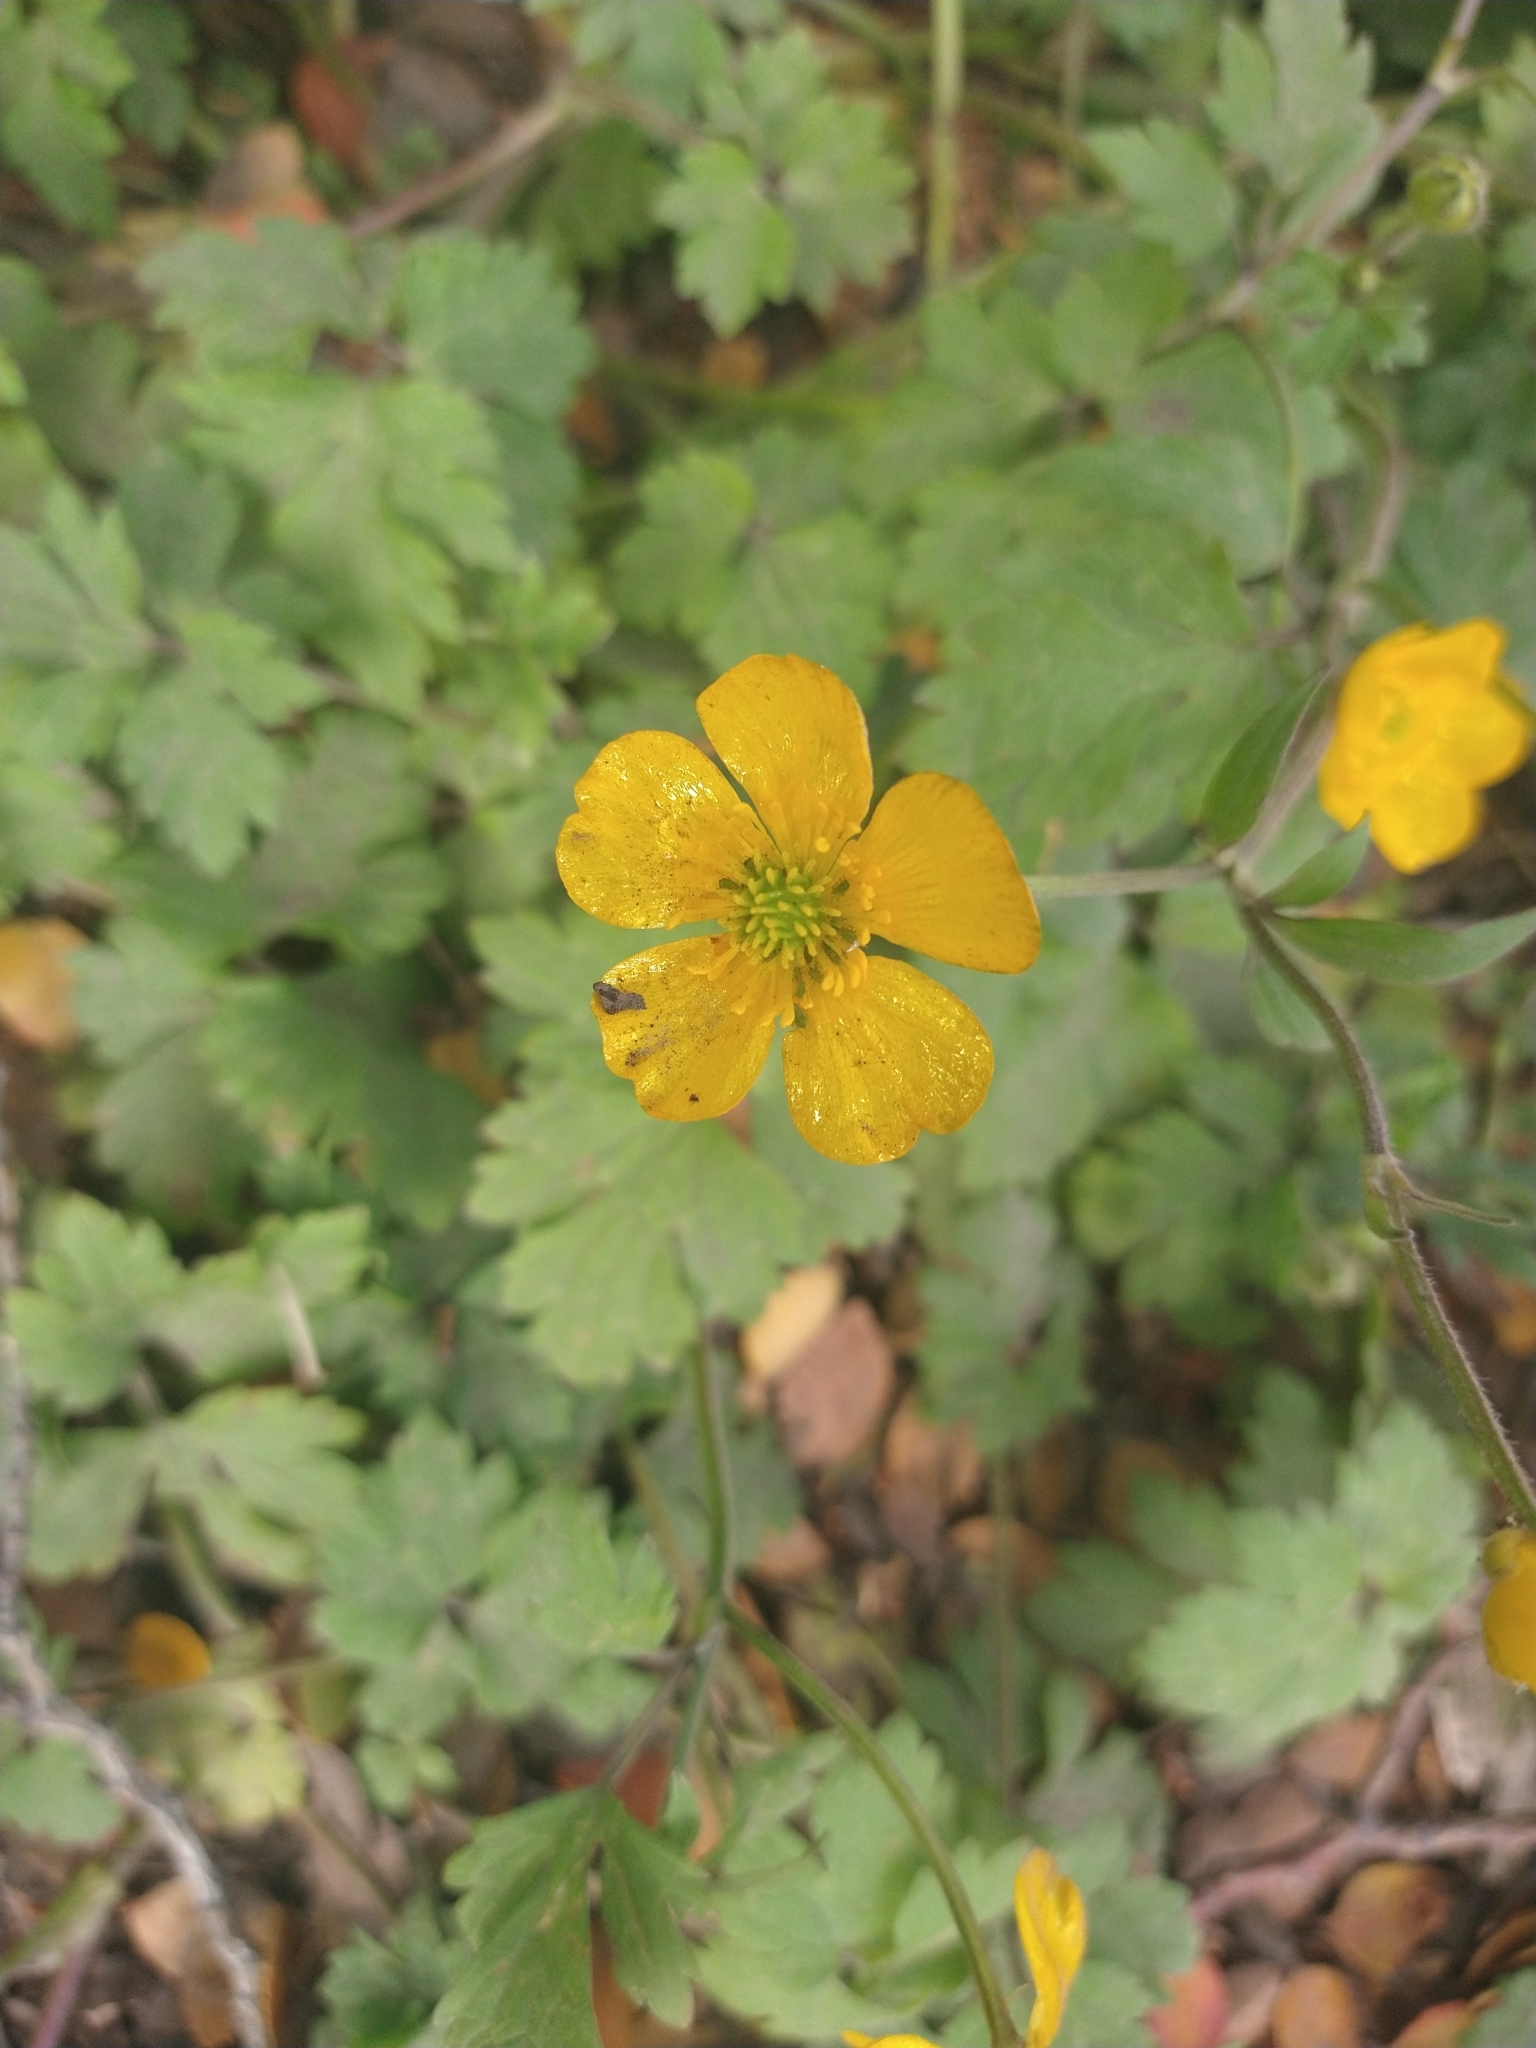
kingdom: Plantae
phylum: Tracheophyta
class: Magnoliopsida
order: Ranunculales
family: Ranunculaceae
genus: Ranunculus
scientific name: Ranunculus repens
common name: Creeping buttercup
